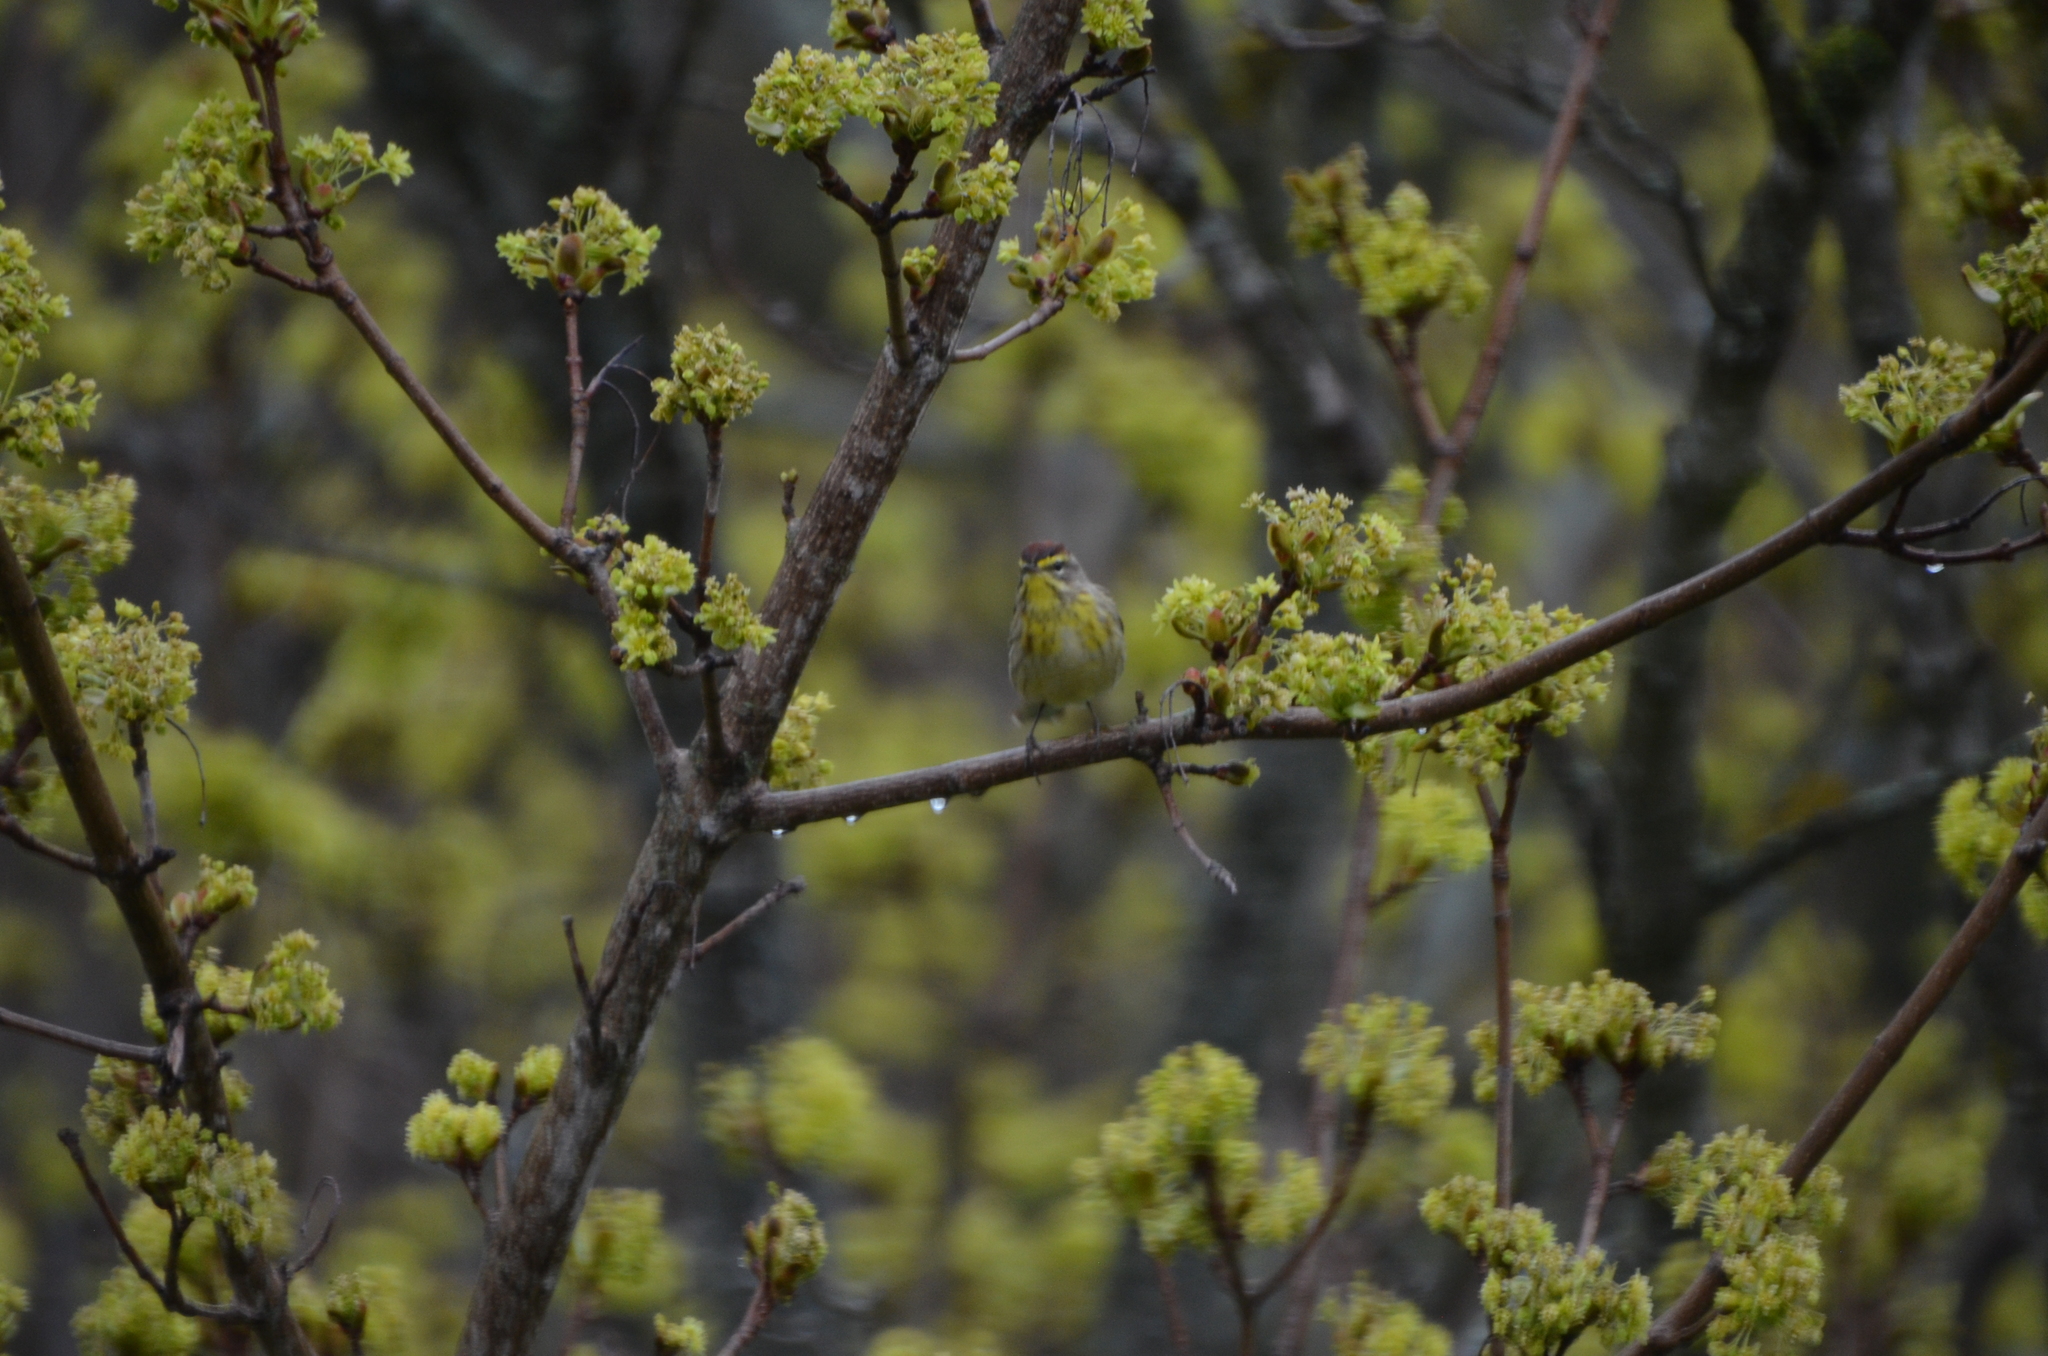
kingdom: Animalia
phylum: Chordata
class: Aves
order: Passeriformes
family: Parulidae
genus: Setophaga
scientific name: Setophaga palmarum
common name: Palm warbler
